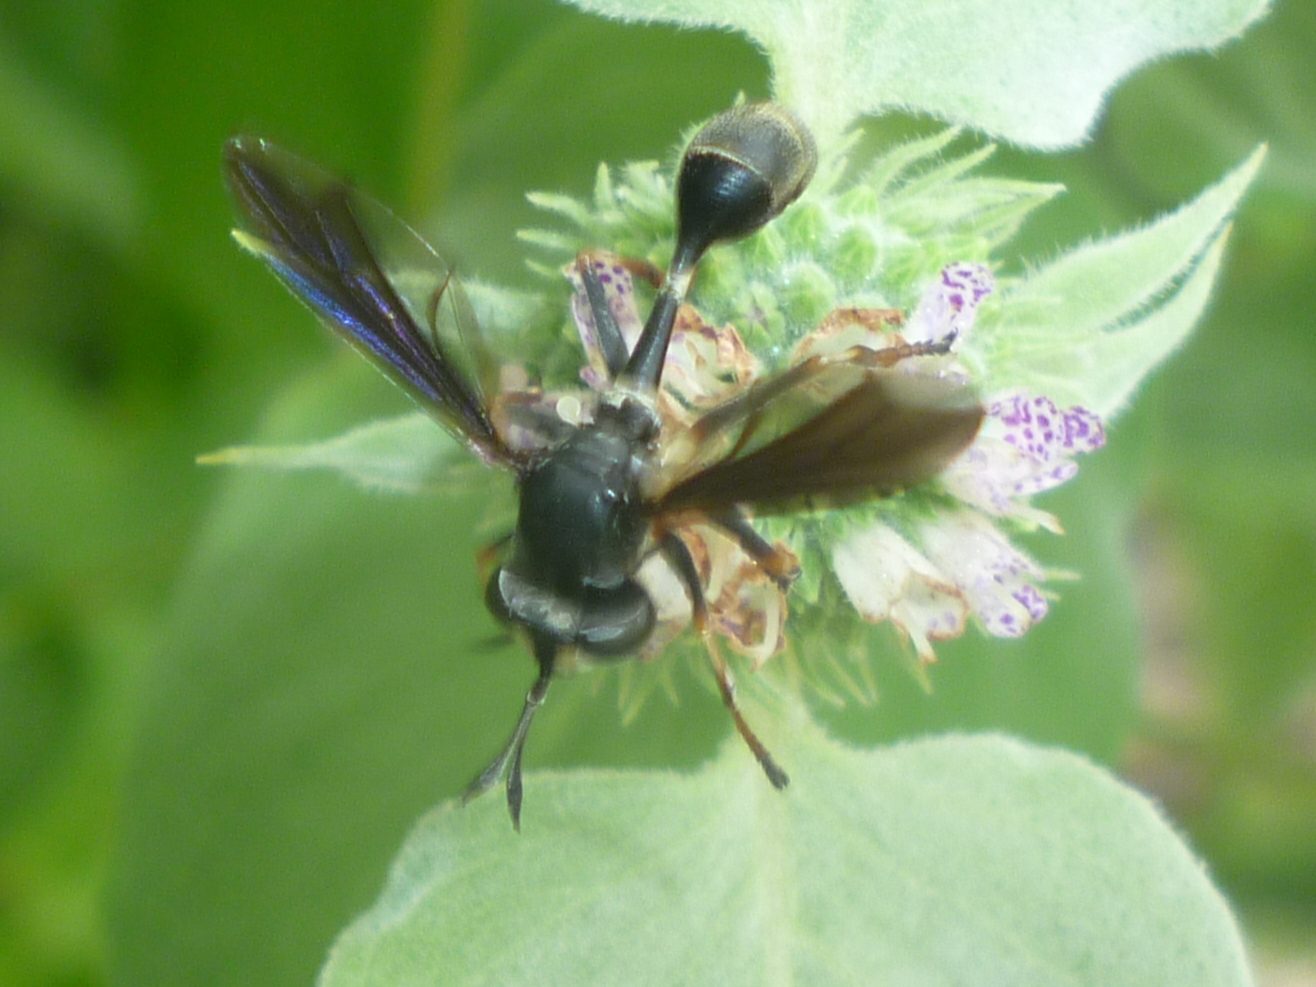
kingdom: Animalia
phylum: Arthropoda
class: Insecta
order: Diptera
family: Conopidae
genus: Physocephala
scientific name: Physocephala tibialis
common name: Common eastern physocephala
